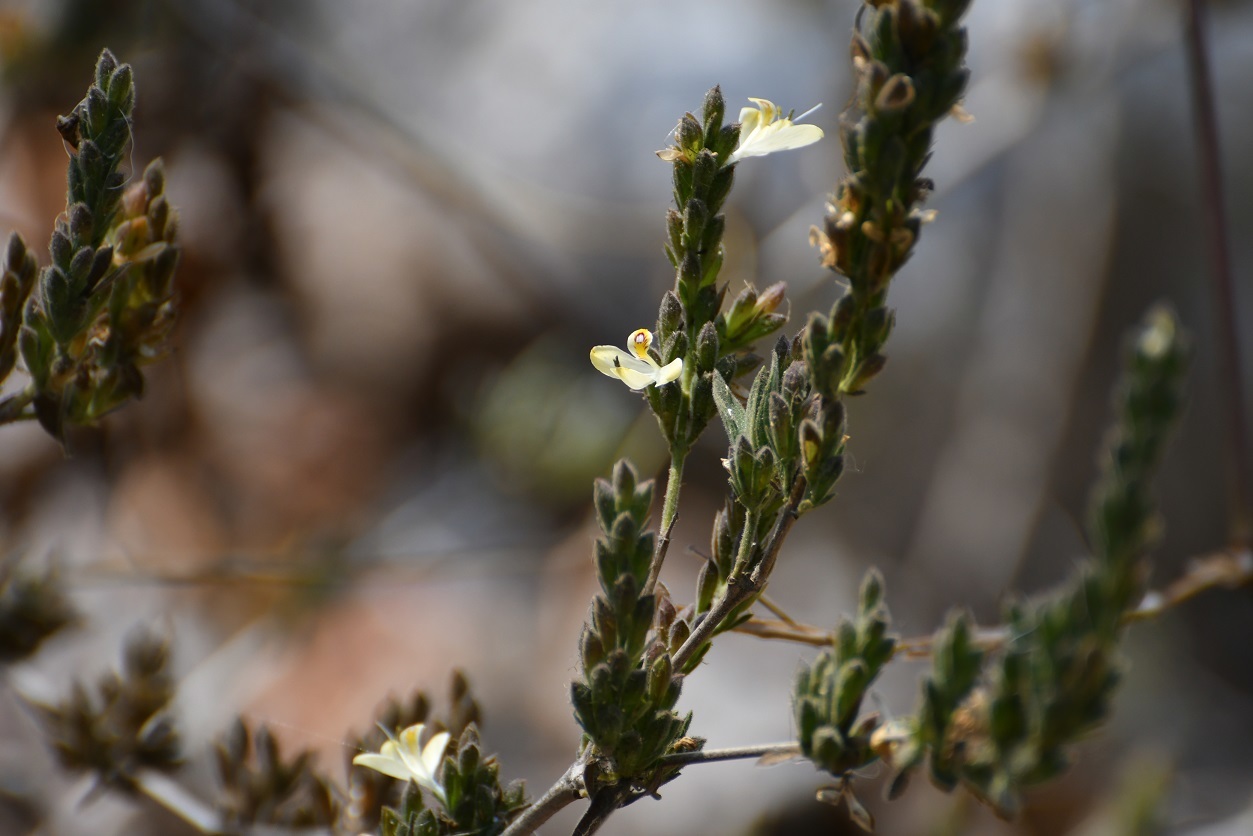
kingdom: Plantae
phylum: Tracheophyta
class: Magnoliopsida
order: Lamiales
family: Acanthaceae
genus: Henrya
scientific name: Henrya insularis
